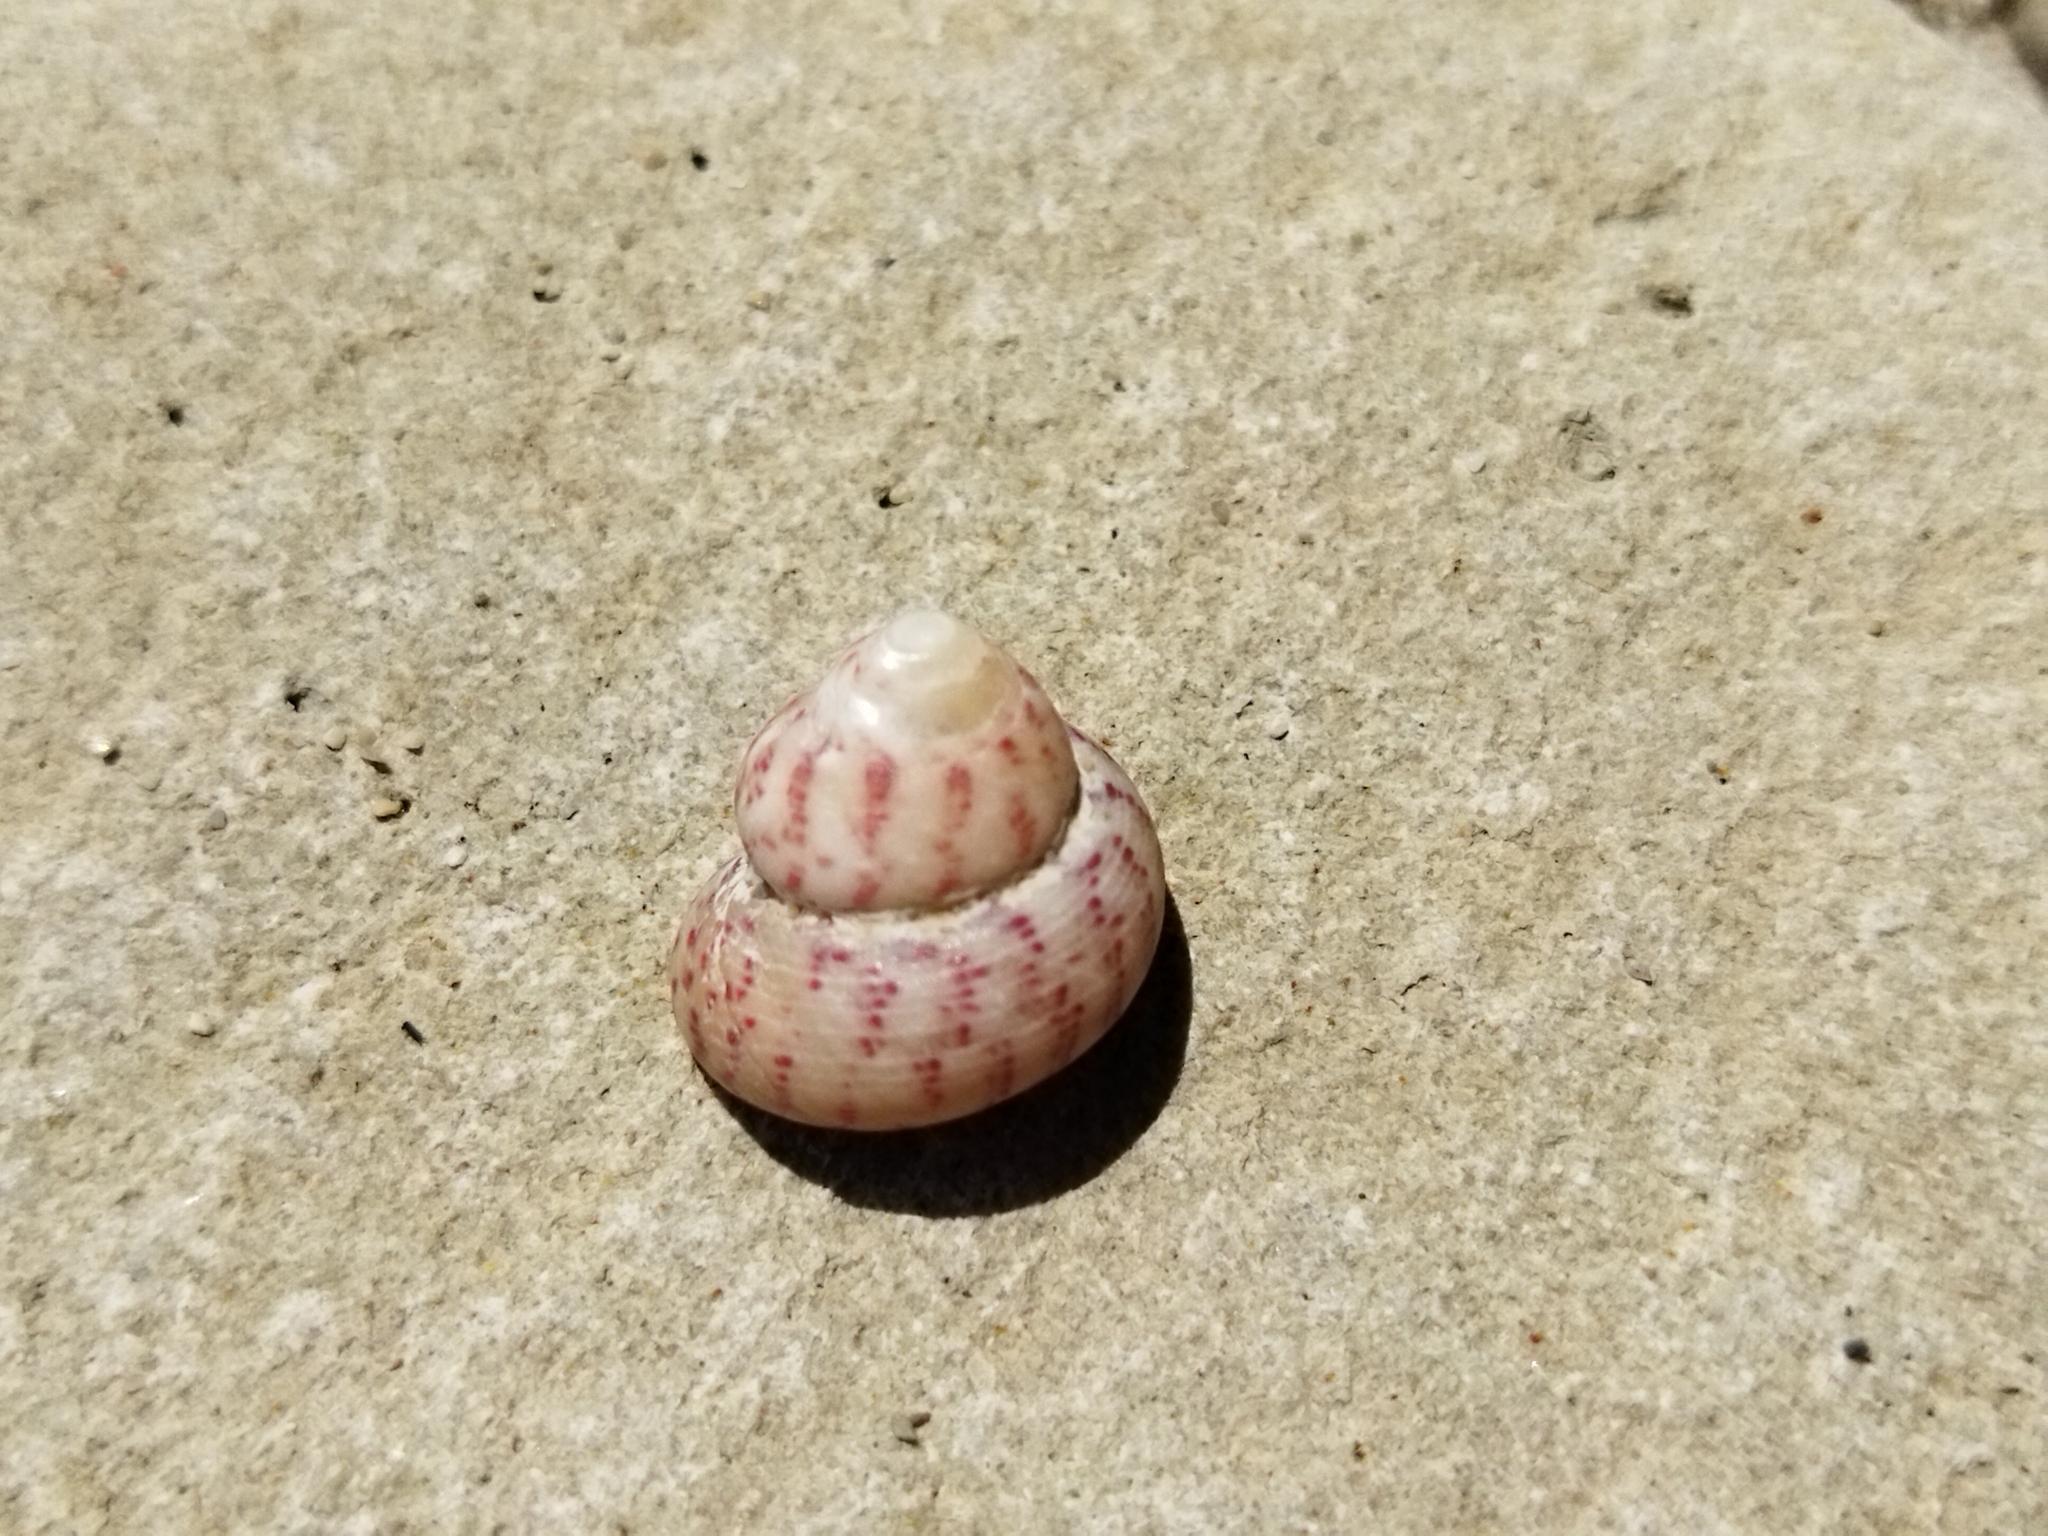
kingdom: Animalia
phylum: Mollusca
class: Gastropoda
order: Trochida
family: Trochidae
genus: Steromphala
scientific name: Steromphala divaricata
